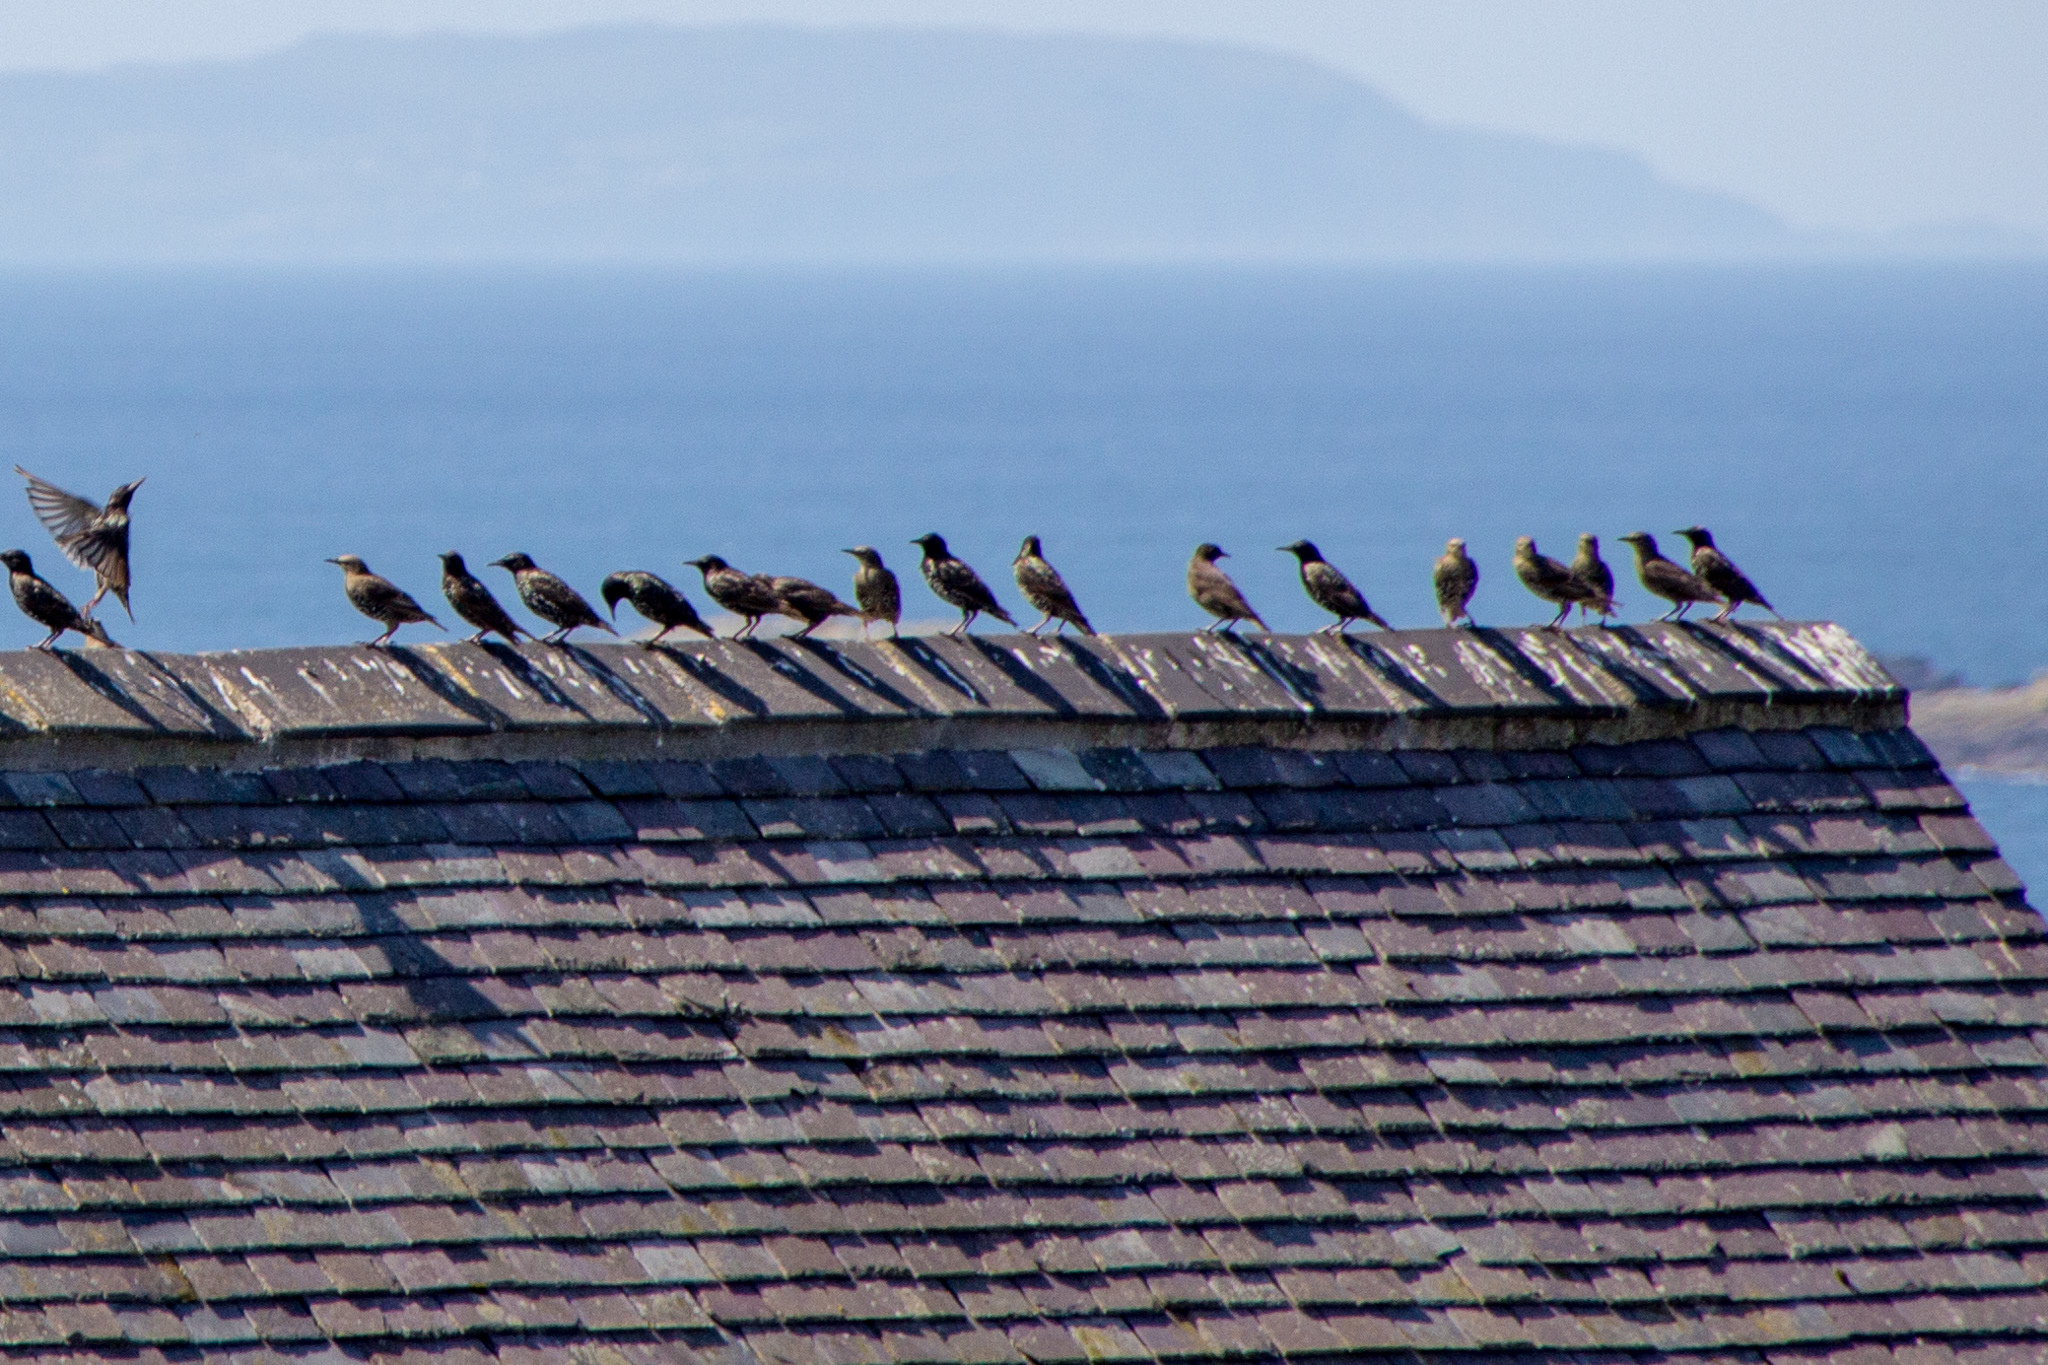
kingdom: Animalia
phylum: Chordata
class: Aves
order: Passeriformes
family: Sturnidae
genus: Sturnus
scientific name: Sturnus vulgaris
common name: Common starling
